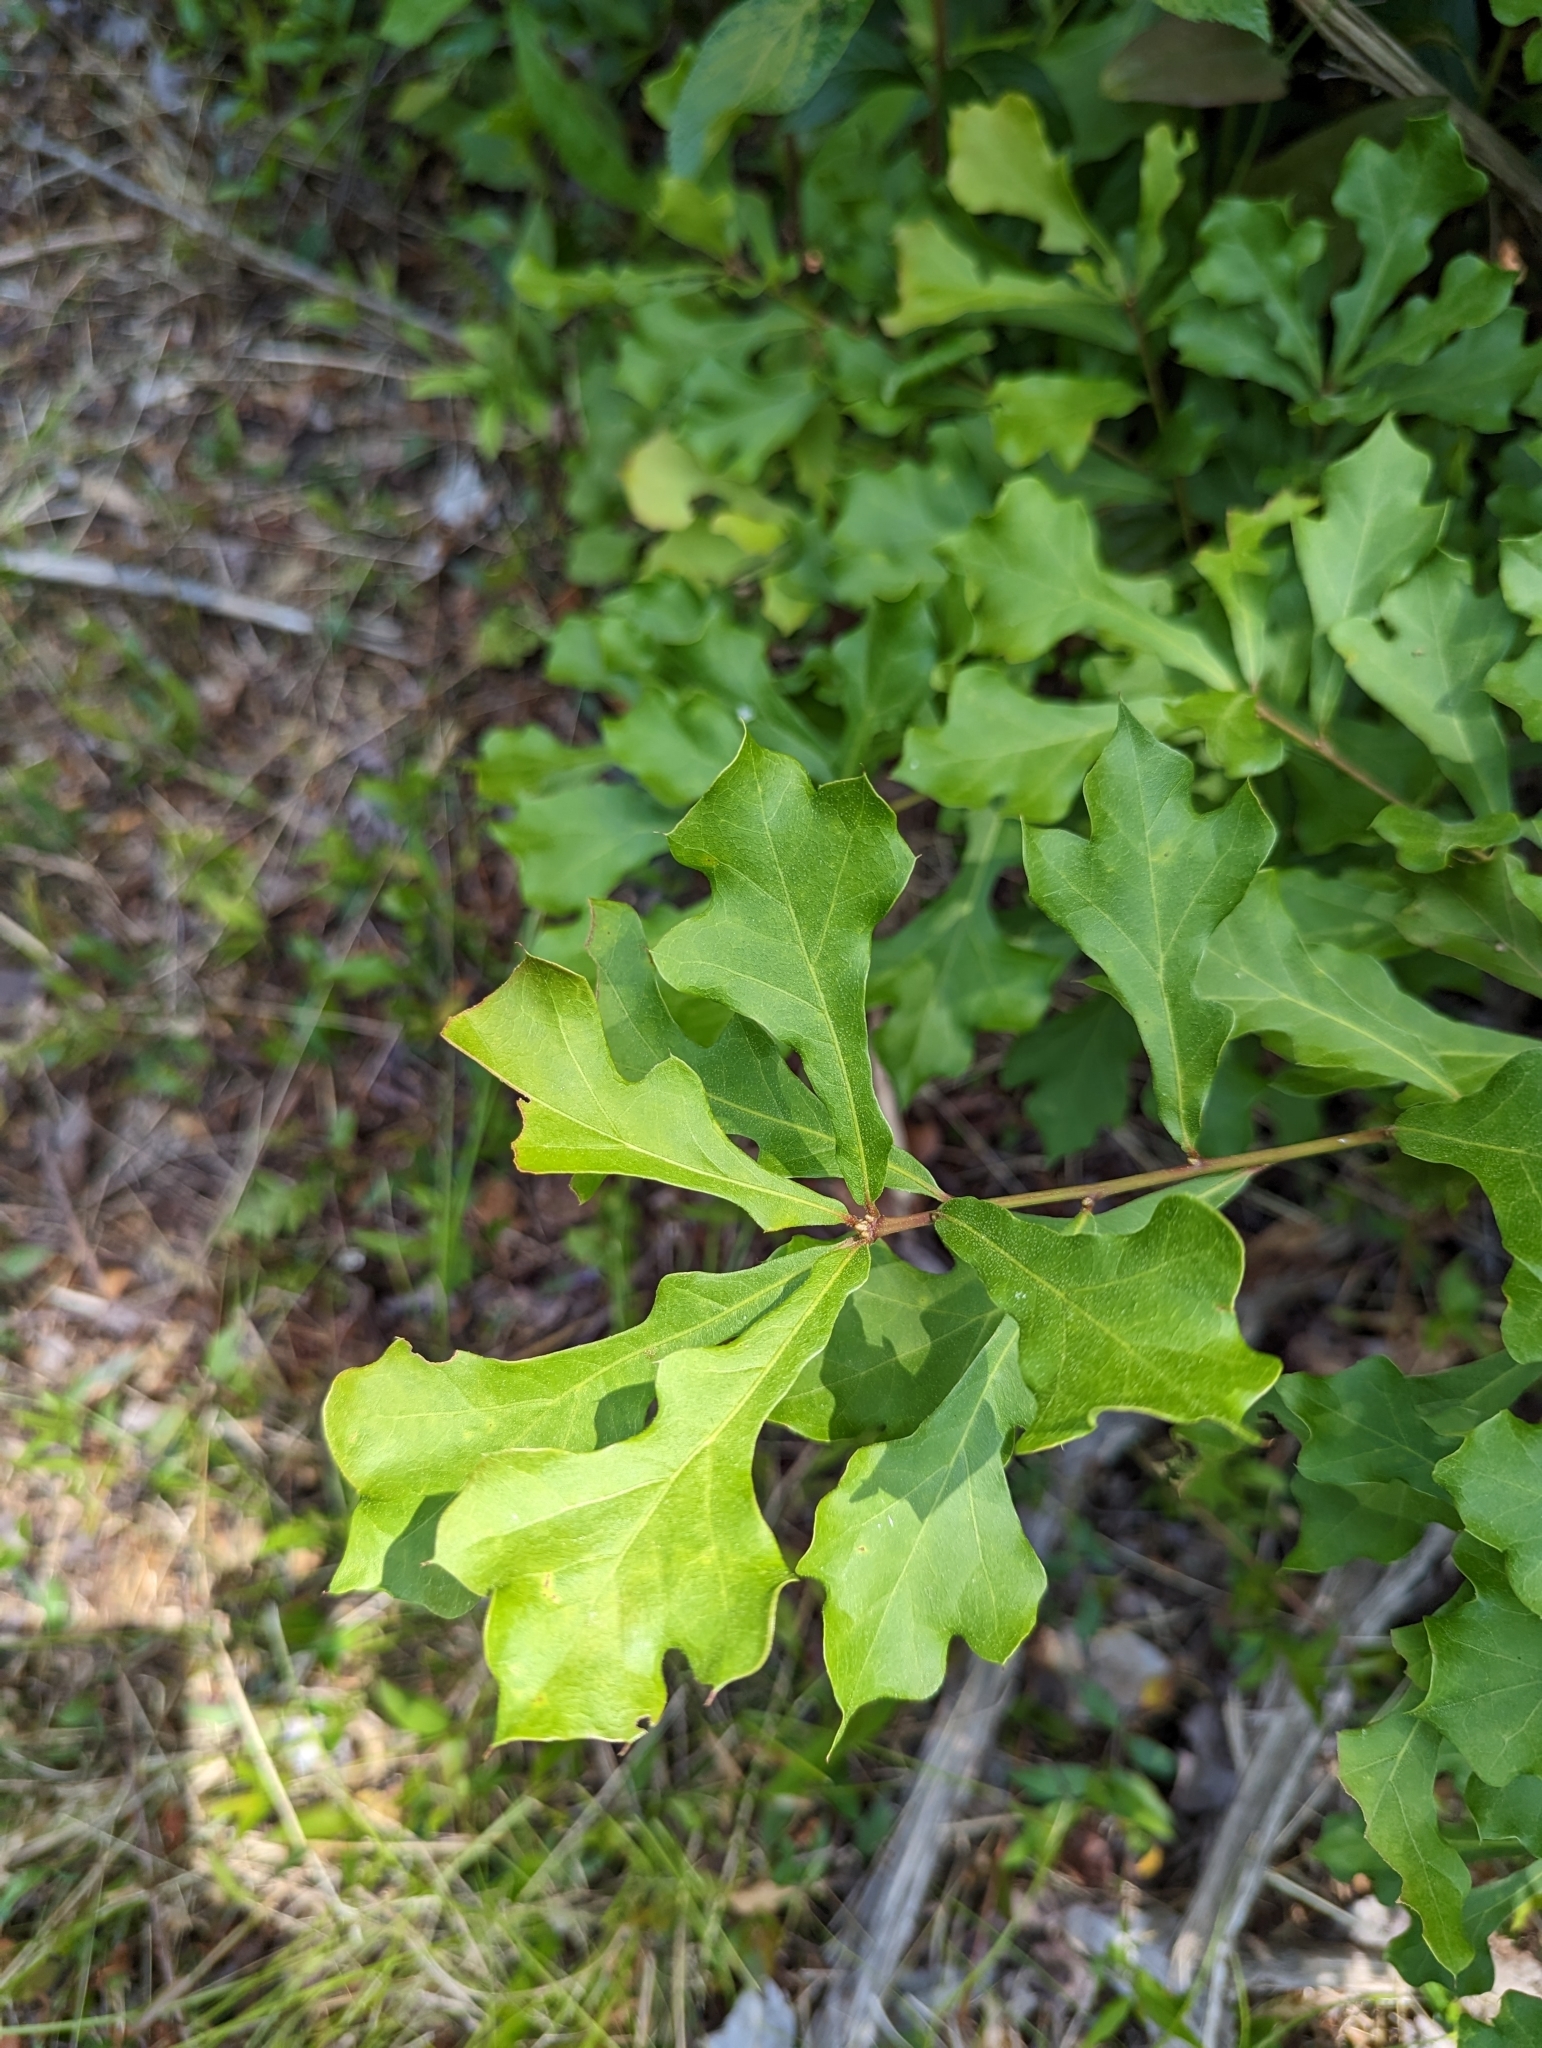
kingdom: Plantae
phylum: Tracheophyta
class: Magnoliopsida
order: Fagales
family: Fagaceae
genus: Quercus
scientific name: Quercus nigra
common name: Water oak
